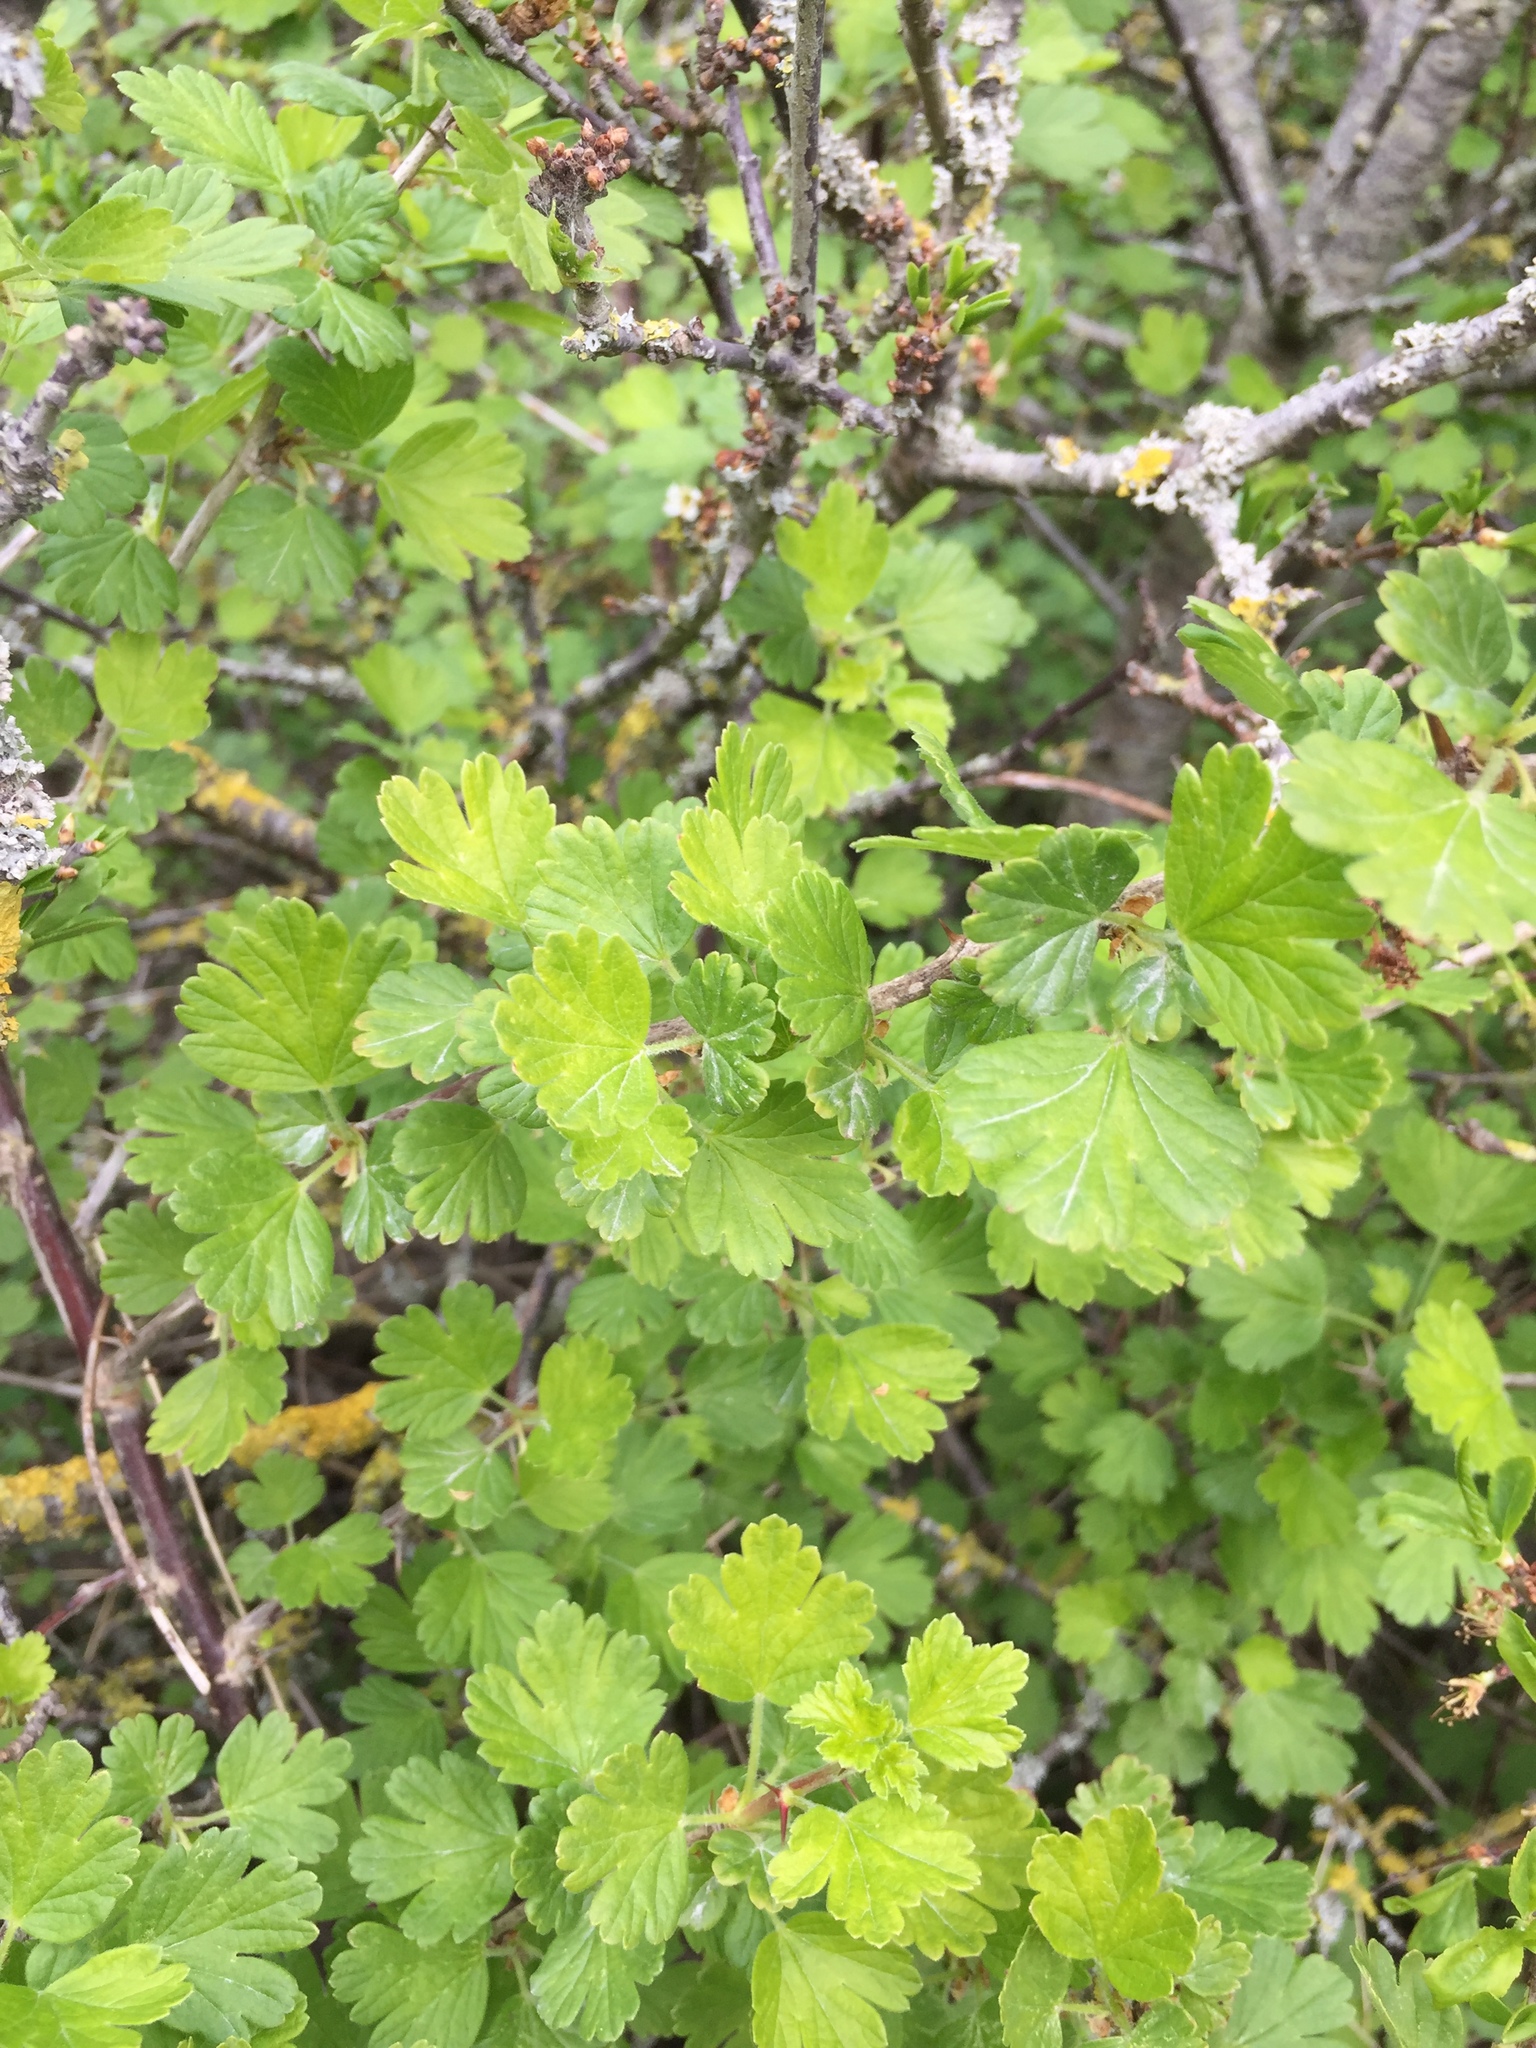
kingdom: Plantae
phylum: Tracheophyta
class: Magnoliopsida
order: Saxifragales
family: Grossulariaceae
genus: Ribes
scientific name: Ribes uva-crispa
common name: Gooseberry
